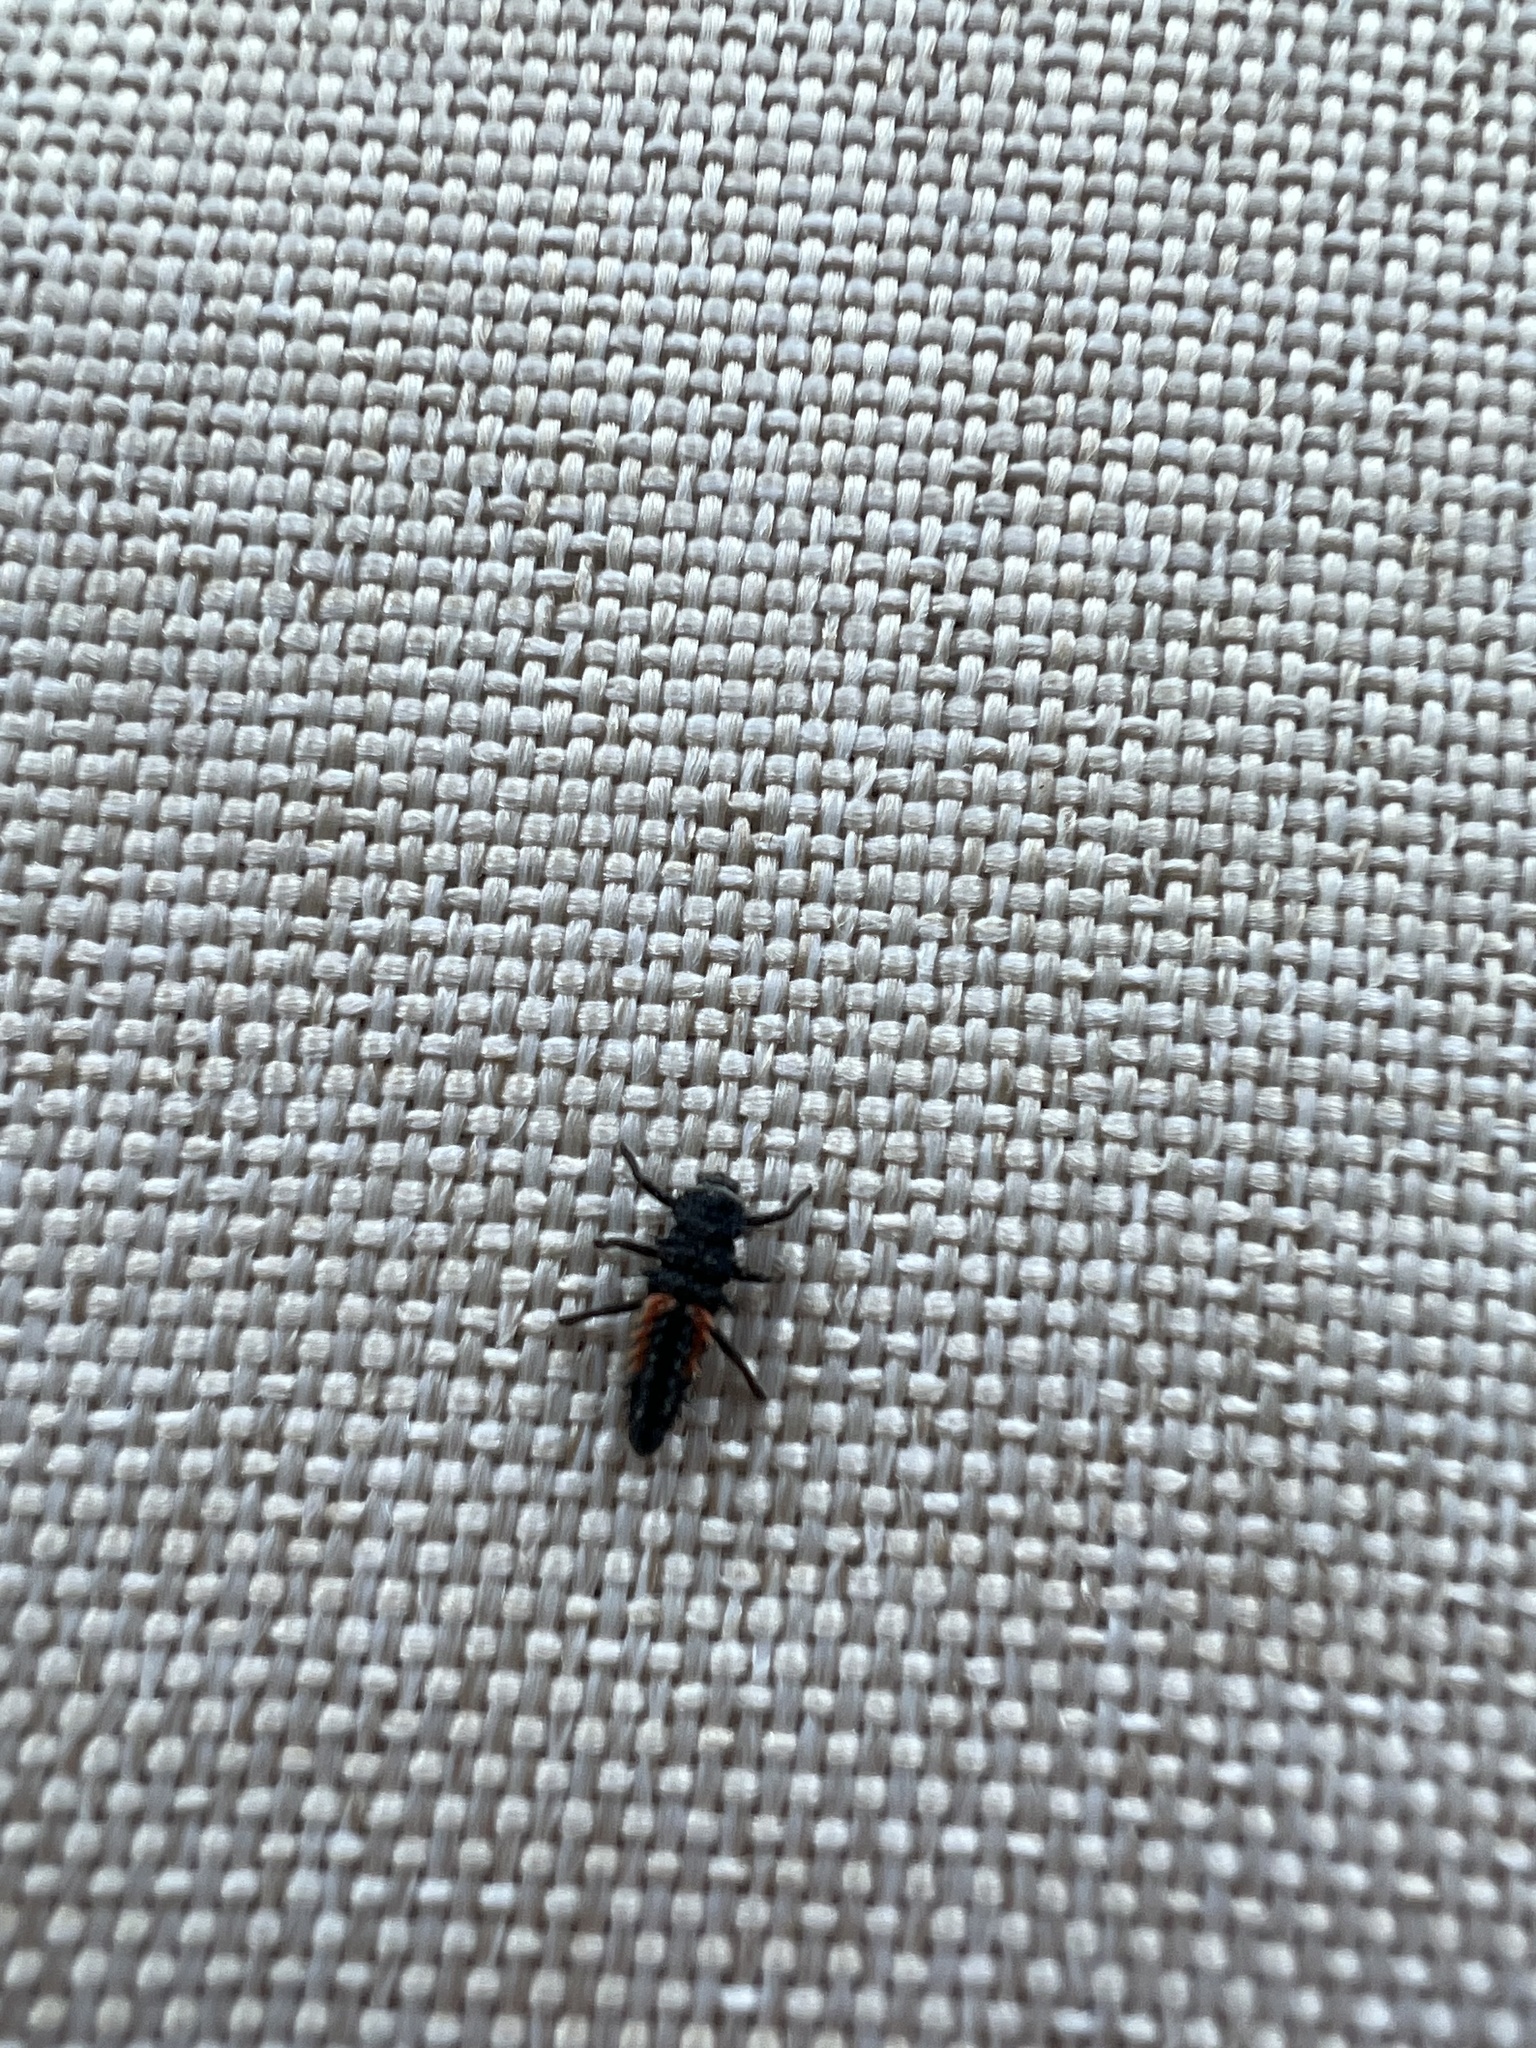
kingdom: Animalia
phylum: Arthropoda
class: Insecta
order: Coleoptera
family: Coccinellidae
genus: Harmonia
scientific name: Harmonia axyridis
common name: Harlequin ladybird
